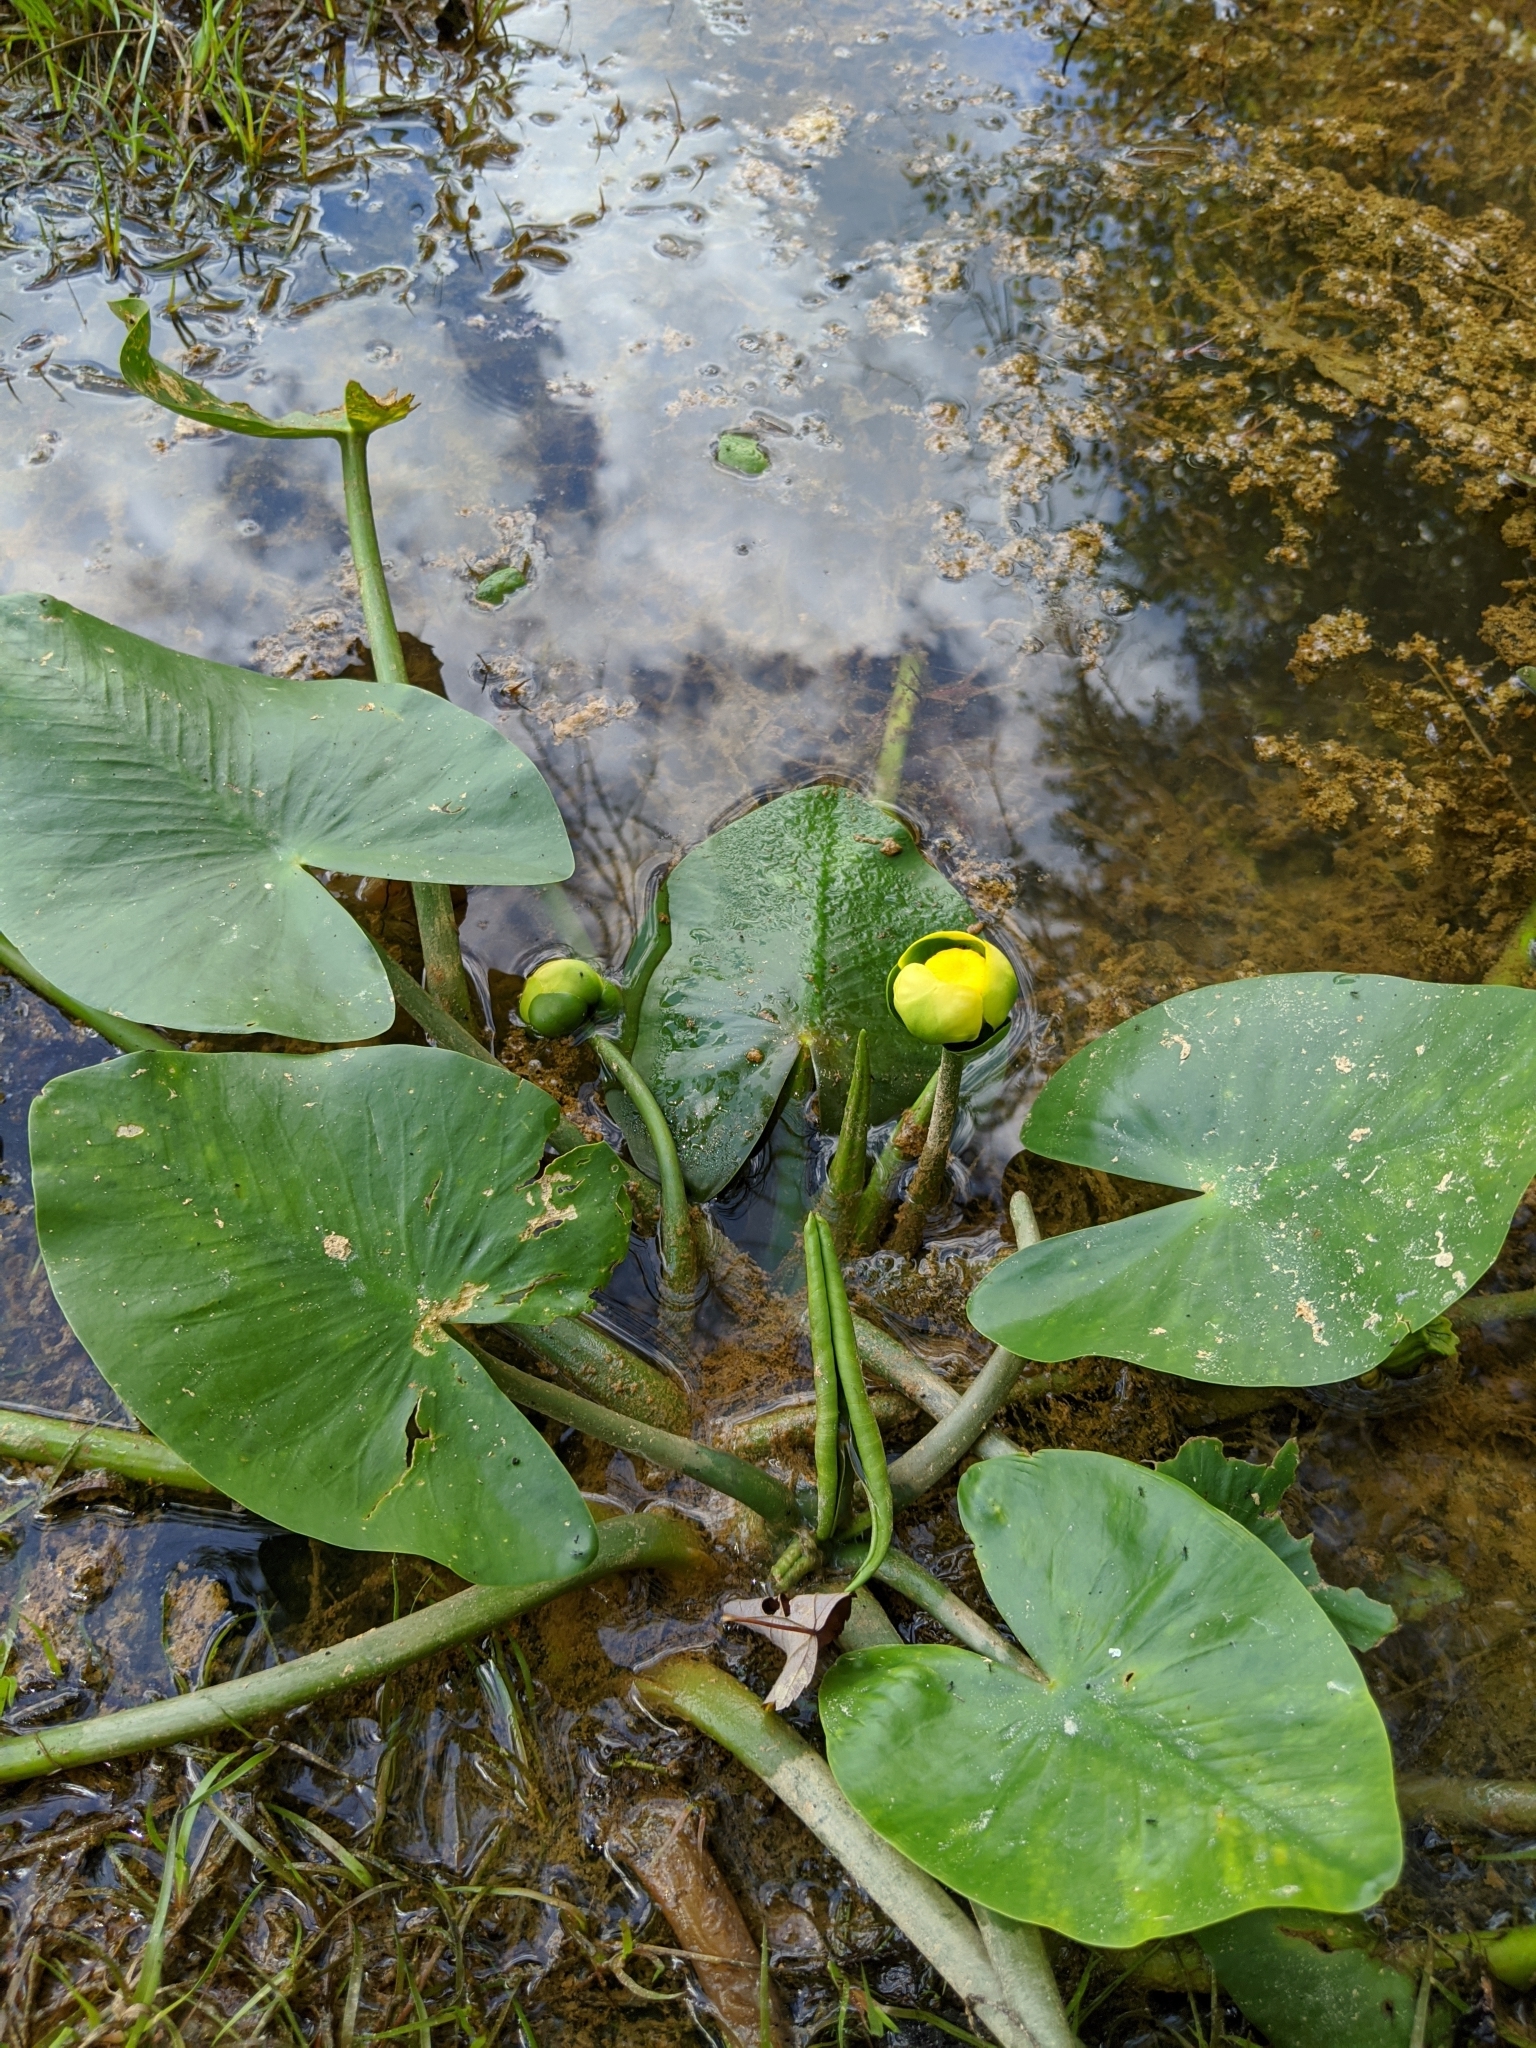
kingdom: Plantae
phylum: Tracheophyta
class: Magnoliopsida
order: Nymphaeales
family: Nymphaeaceae
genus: Nuphar
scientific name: Nuphar advena
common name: Spatter-dock
